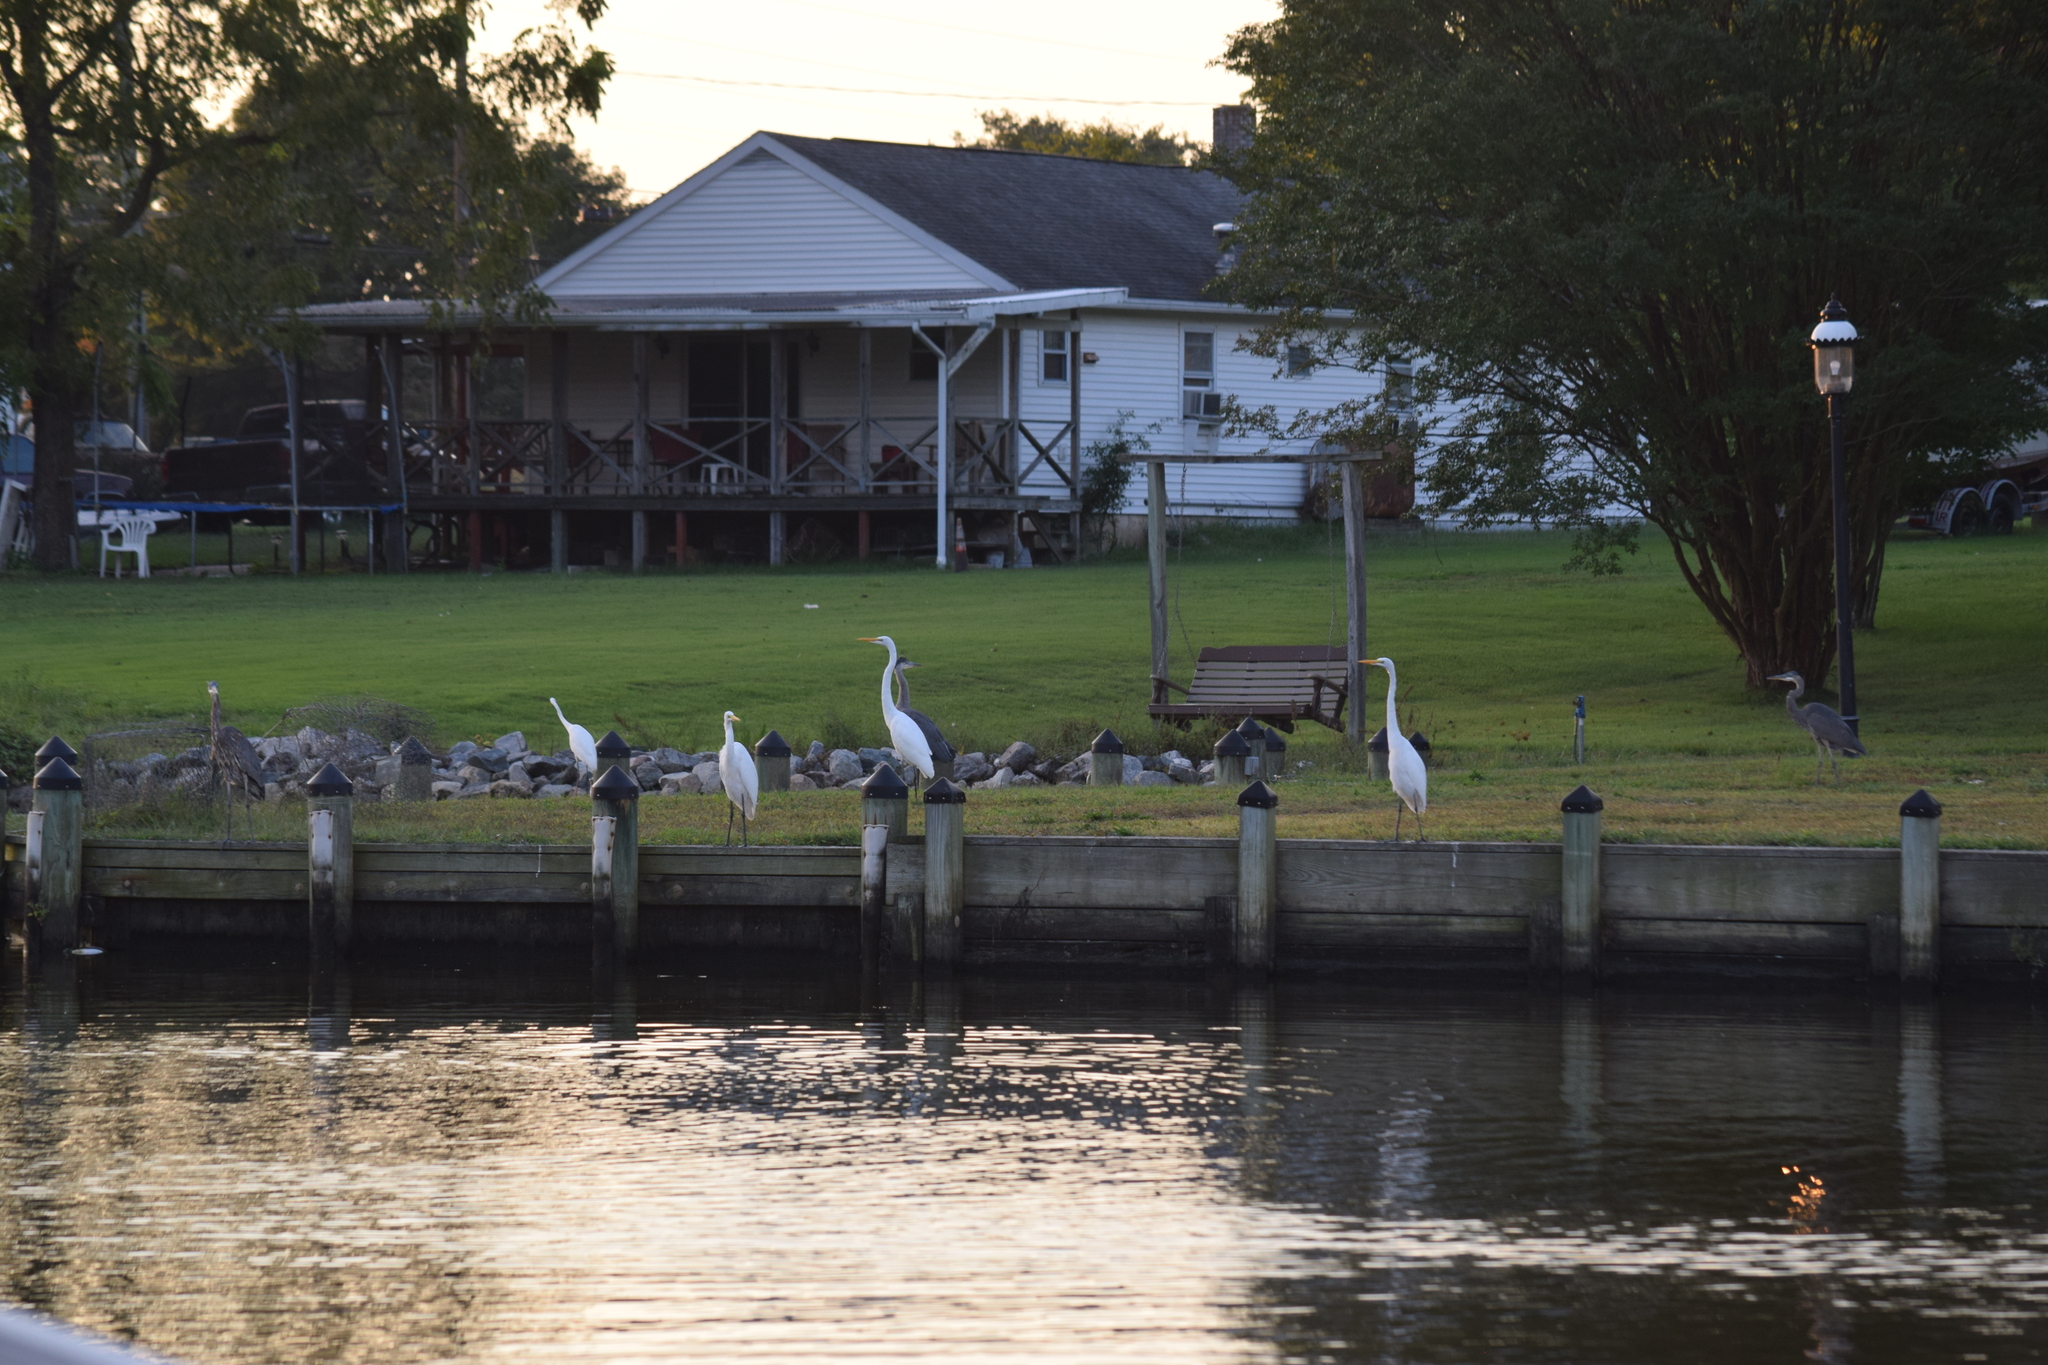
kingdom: Animalia
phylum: Chordata
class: Aves
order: Pelecaniformes
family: Ardeidae
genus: Ardea
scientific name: Ardea alba
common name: Great egret
